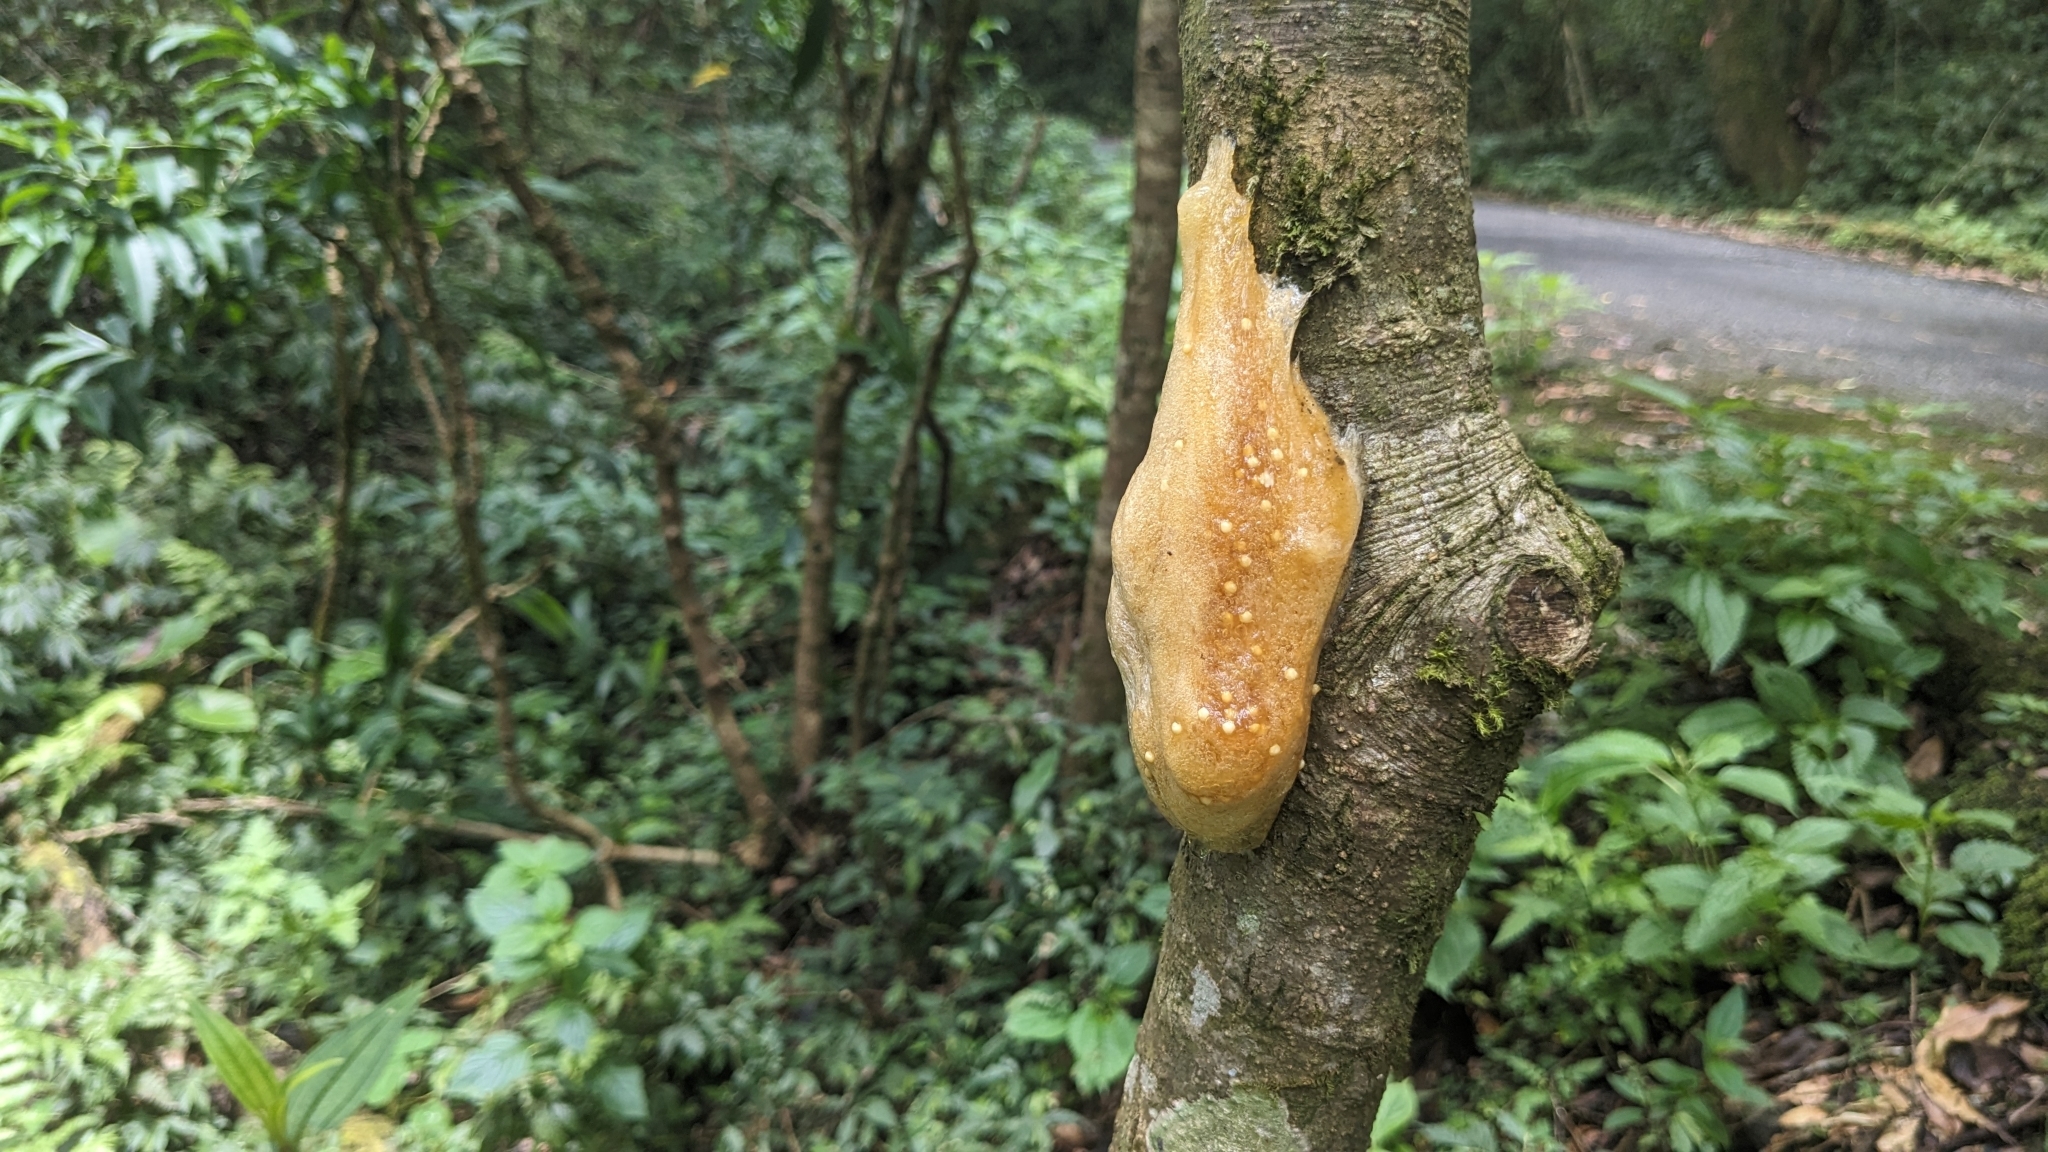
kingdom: Animalia
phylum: Chordata
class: Amphibia
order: Anura
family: Rhacophoridae
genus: Polypedates
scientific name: Polypedates megacephalus
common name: Hong kong whipping frog
